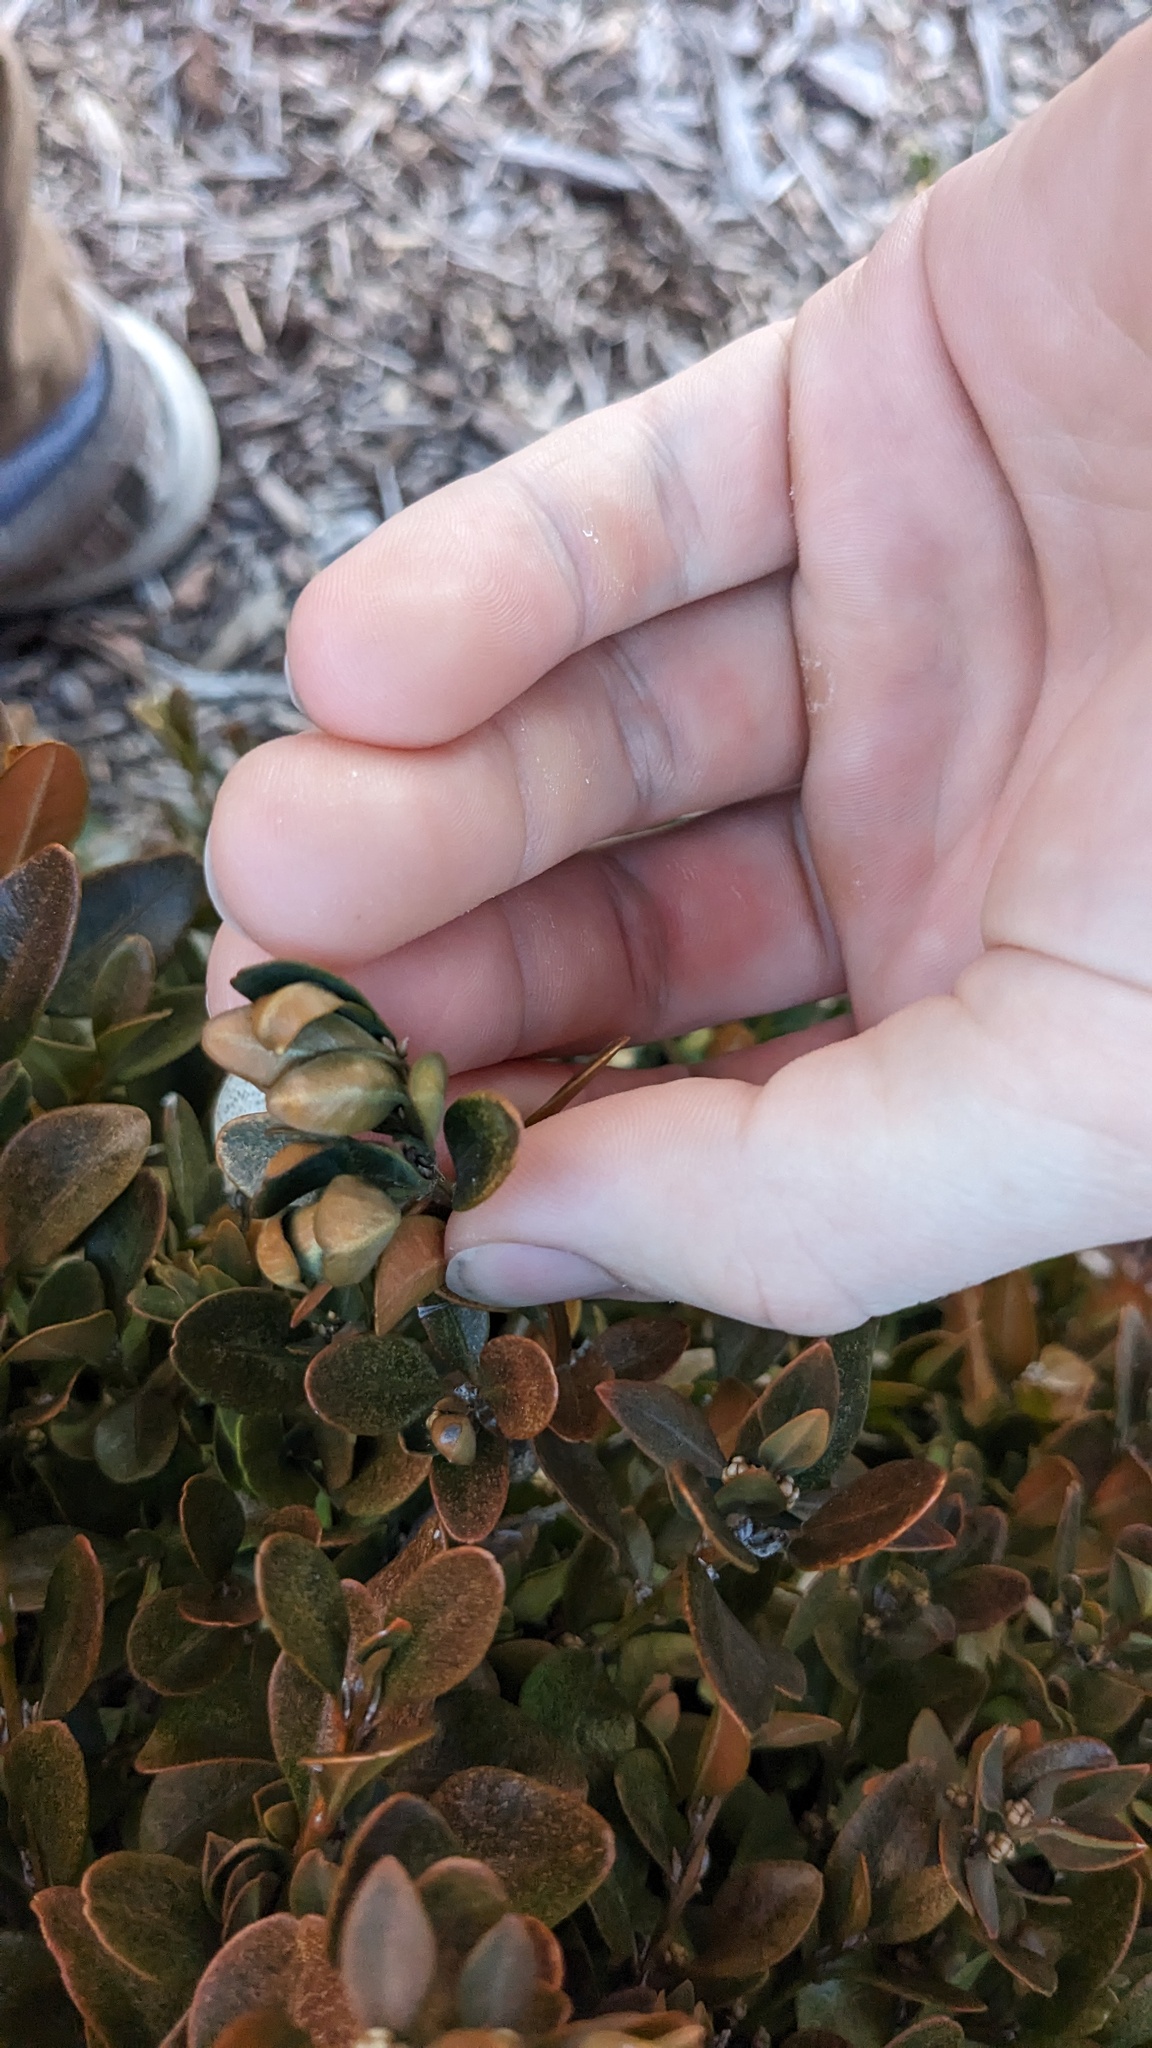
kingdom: Animalia
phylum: Arthropoda
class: Insecta
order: Hemiptera
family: Psyllidae
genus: Psylla
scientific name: Psylla buxi
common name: Boxwood psyllid
